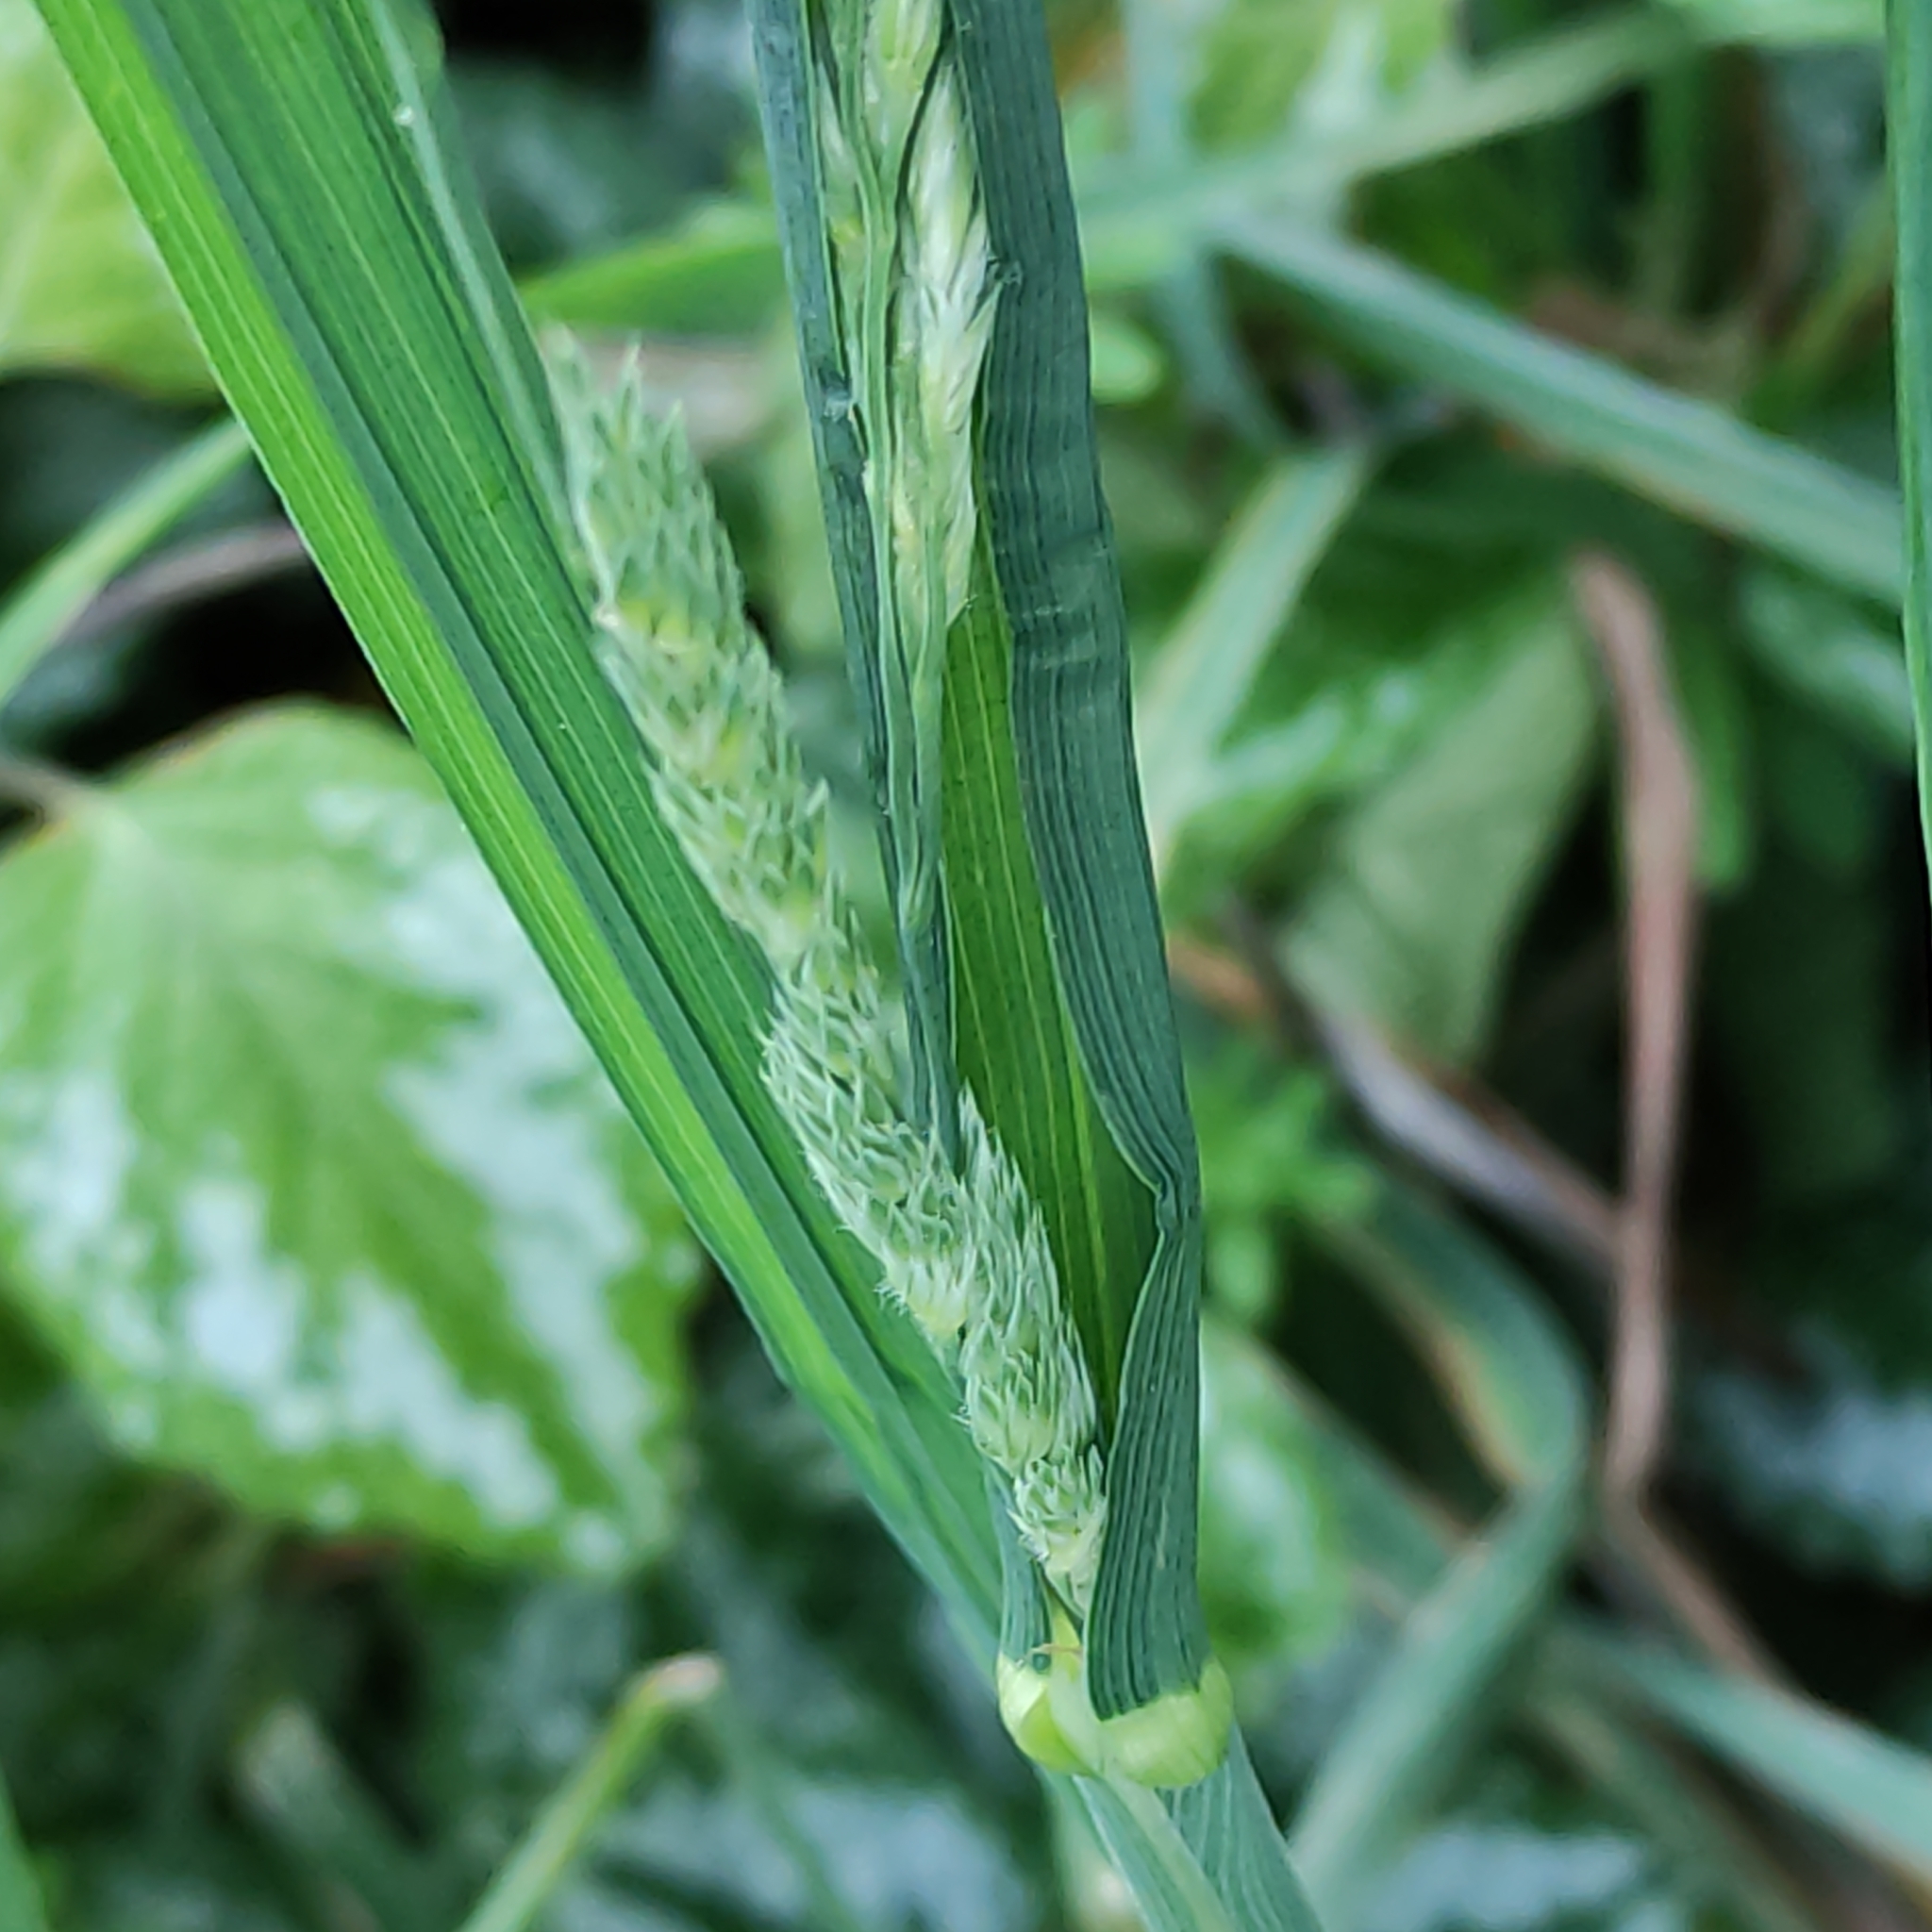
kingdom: Plantae
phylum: Tracheophyta
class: Liliopsida
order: Poales
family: Poaceae
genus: Dactylis
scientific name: Dactylis glomerata
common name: Orchardgrass
